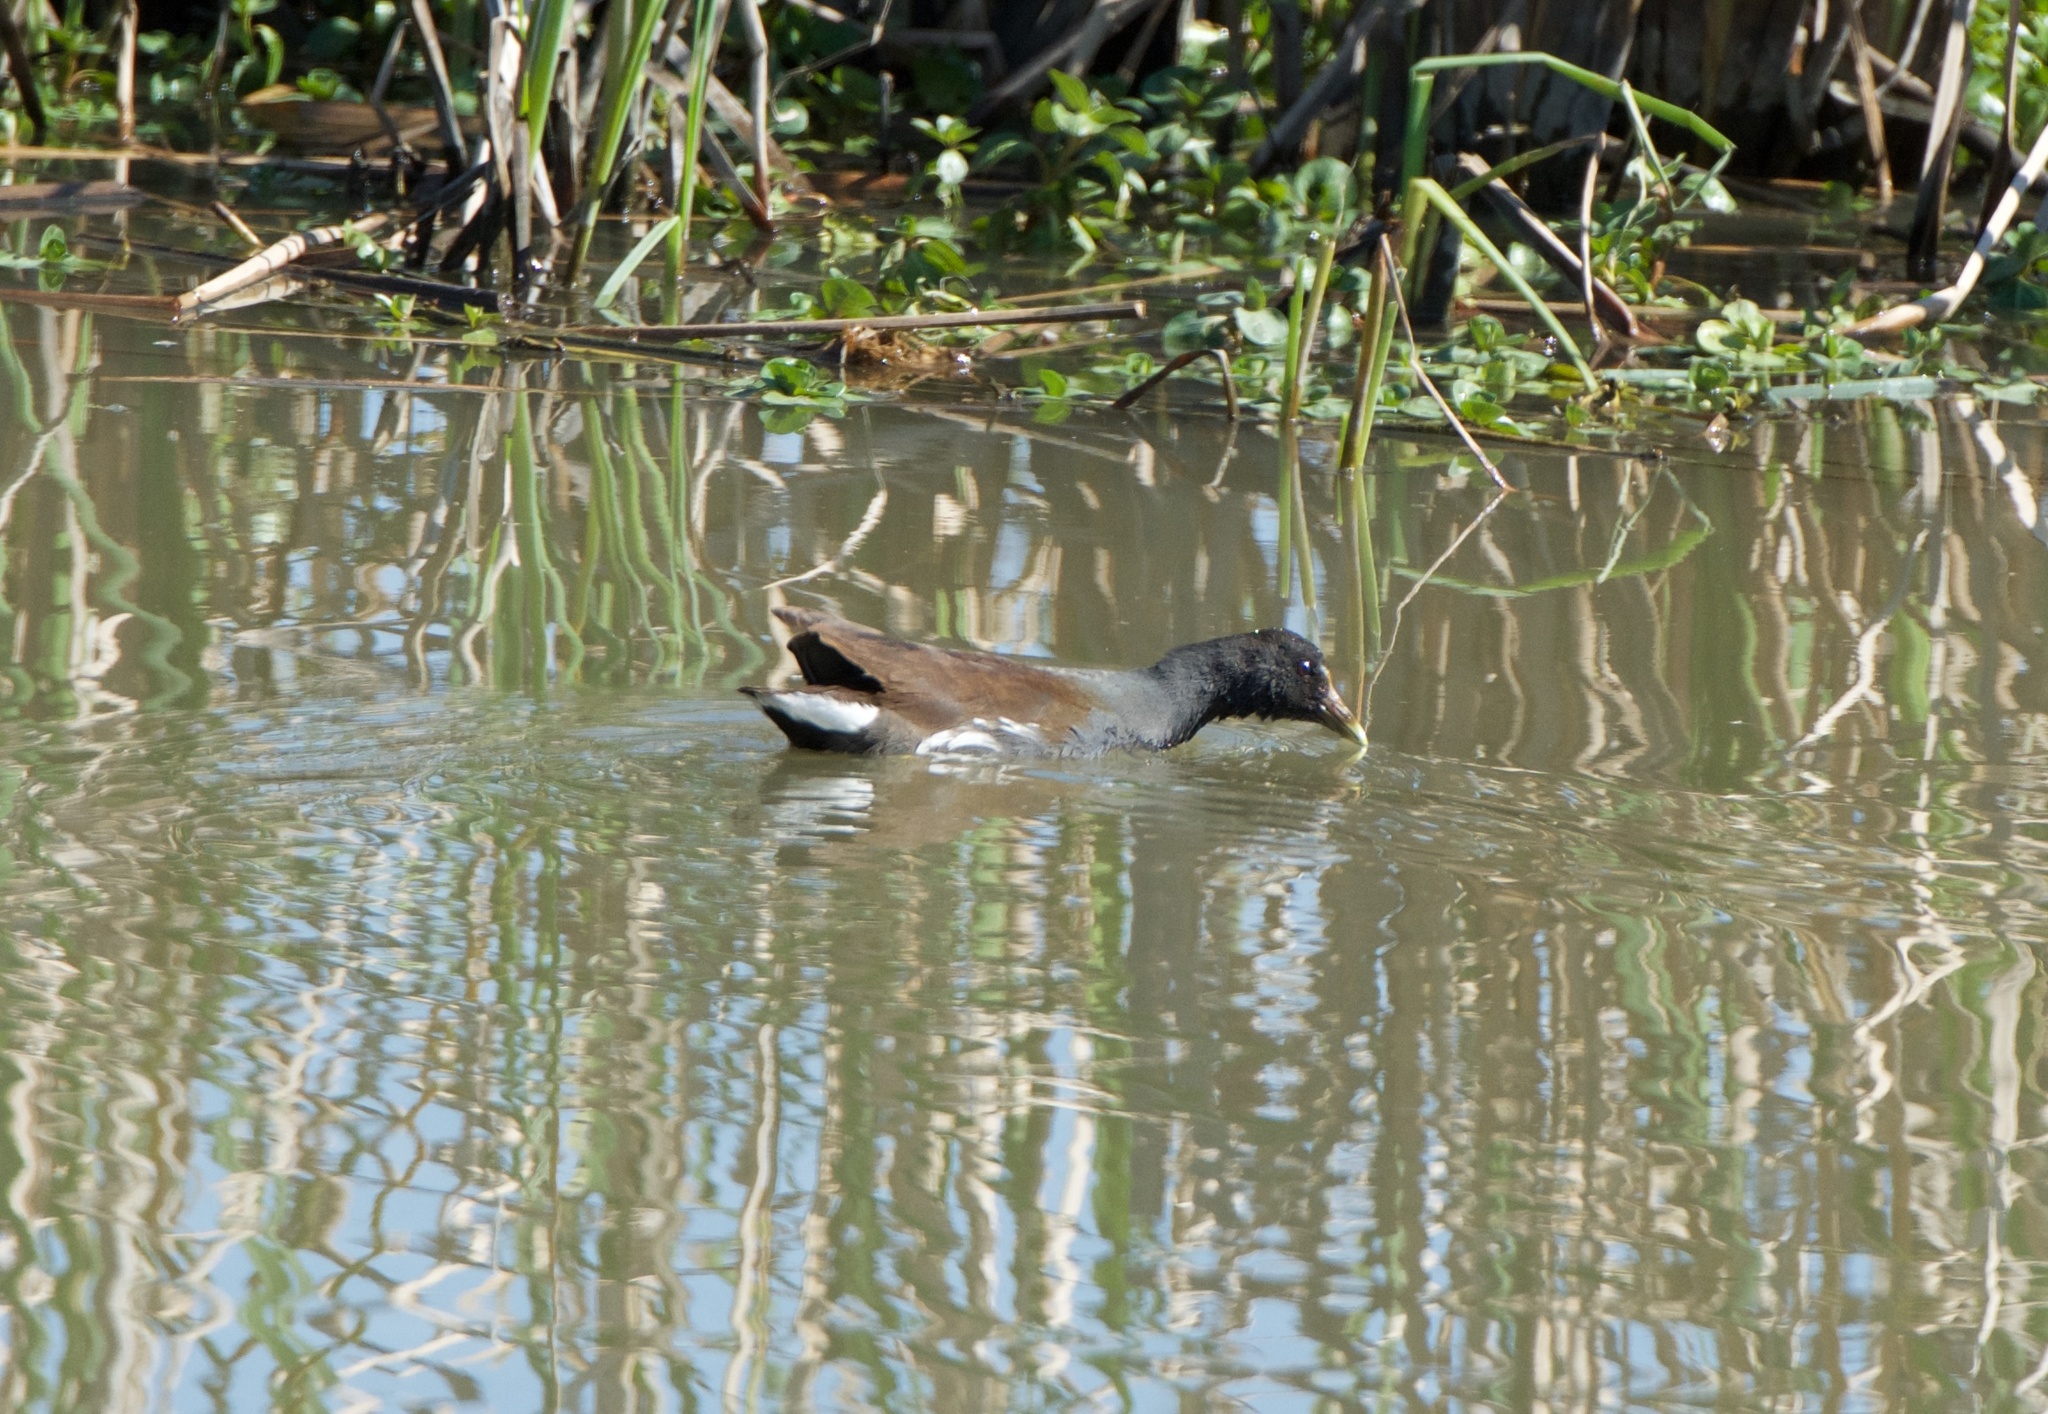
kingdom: Animalia
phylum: Chordata
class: Aves
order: Gruiformes
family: Rallidae
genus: Gallinula
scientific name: Gallinula chloropus
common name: Common moorhen
